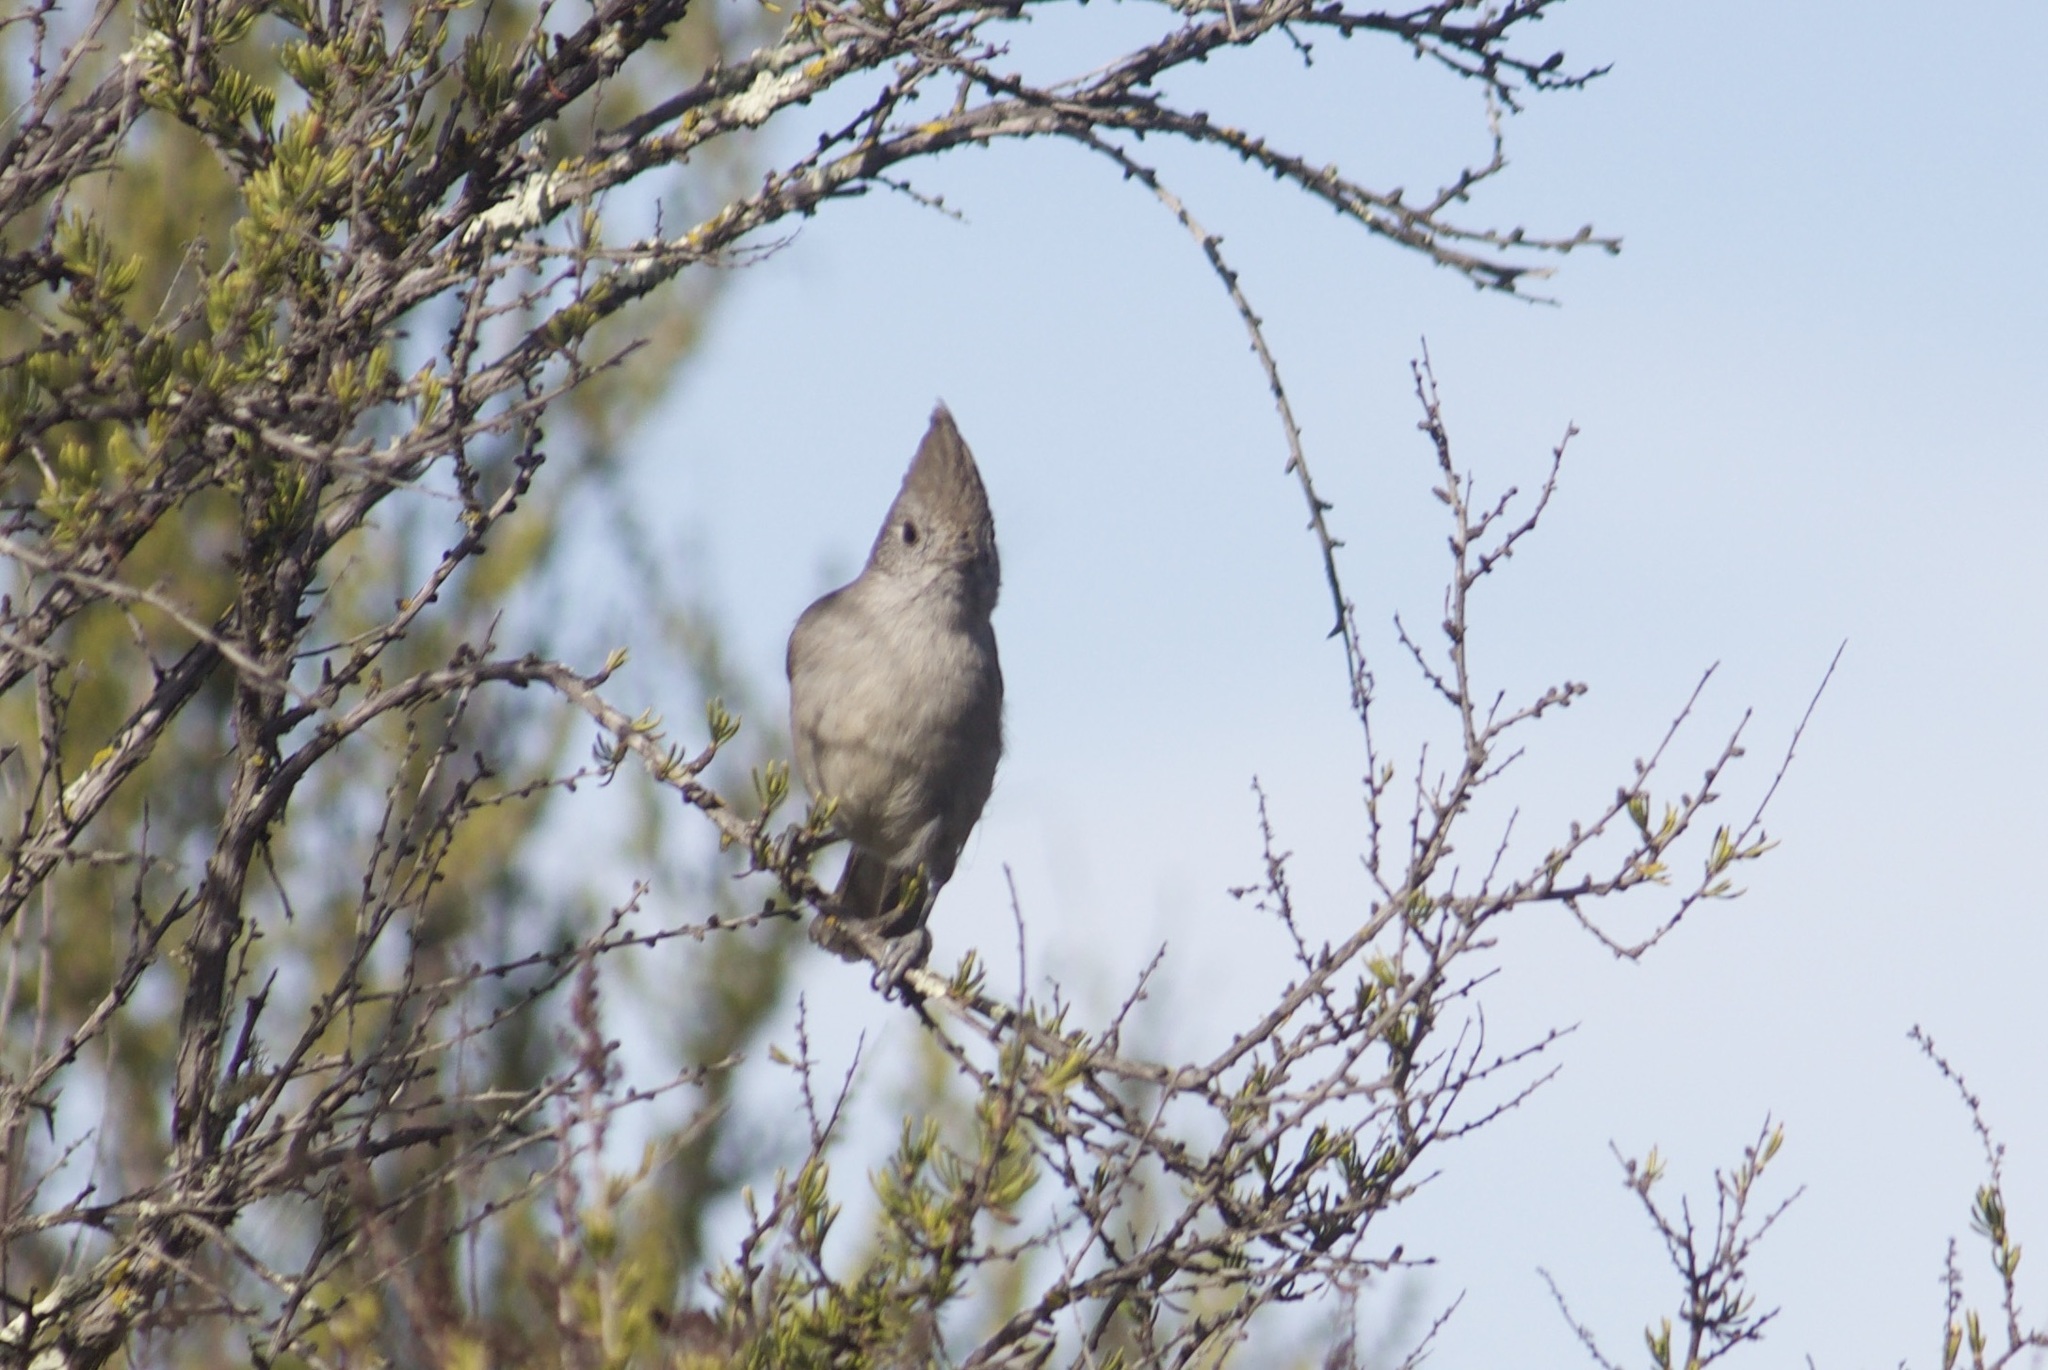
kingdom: Animalia
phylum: Chordata
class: Aves
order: Passeriformes
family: Paridae
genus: Baeolophus
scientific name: Baeolophus inornatus
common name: Oak titmouse
